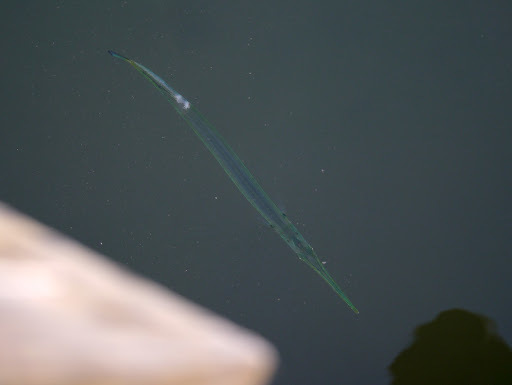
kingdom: Animalia
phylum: Chordata
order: Beloniformes
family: Belonidae
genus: Strongylura
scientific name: Strongylura marina
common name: Atlantic needlefish
